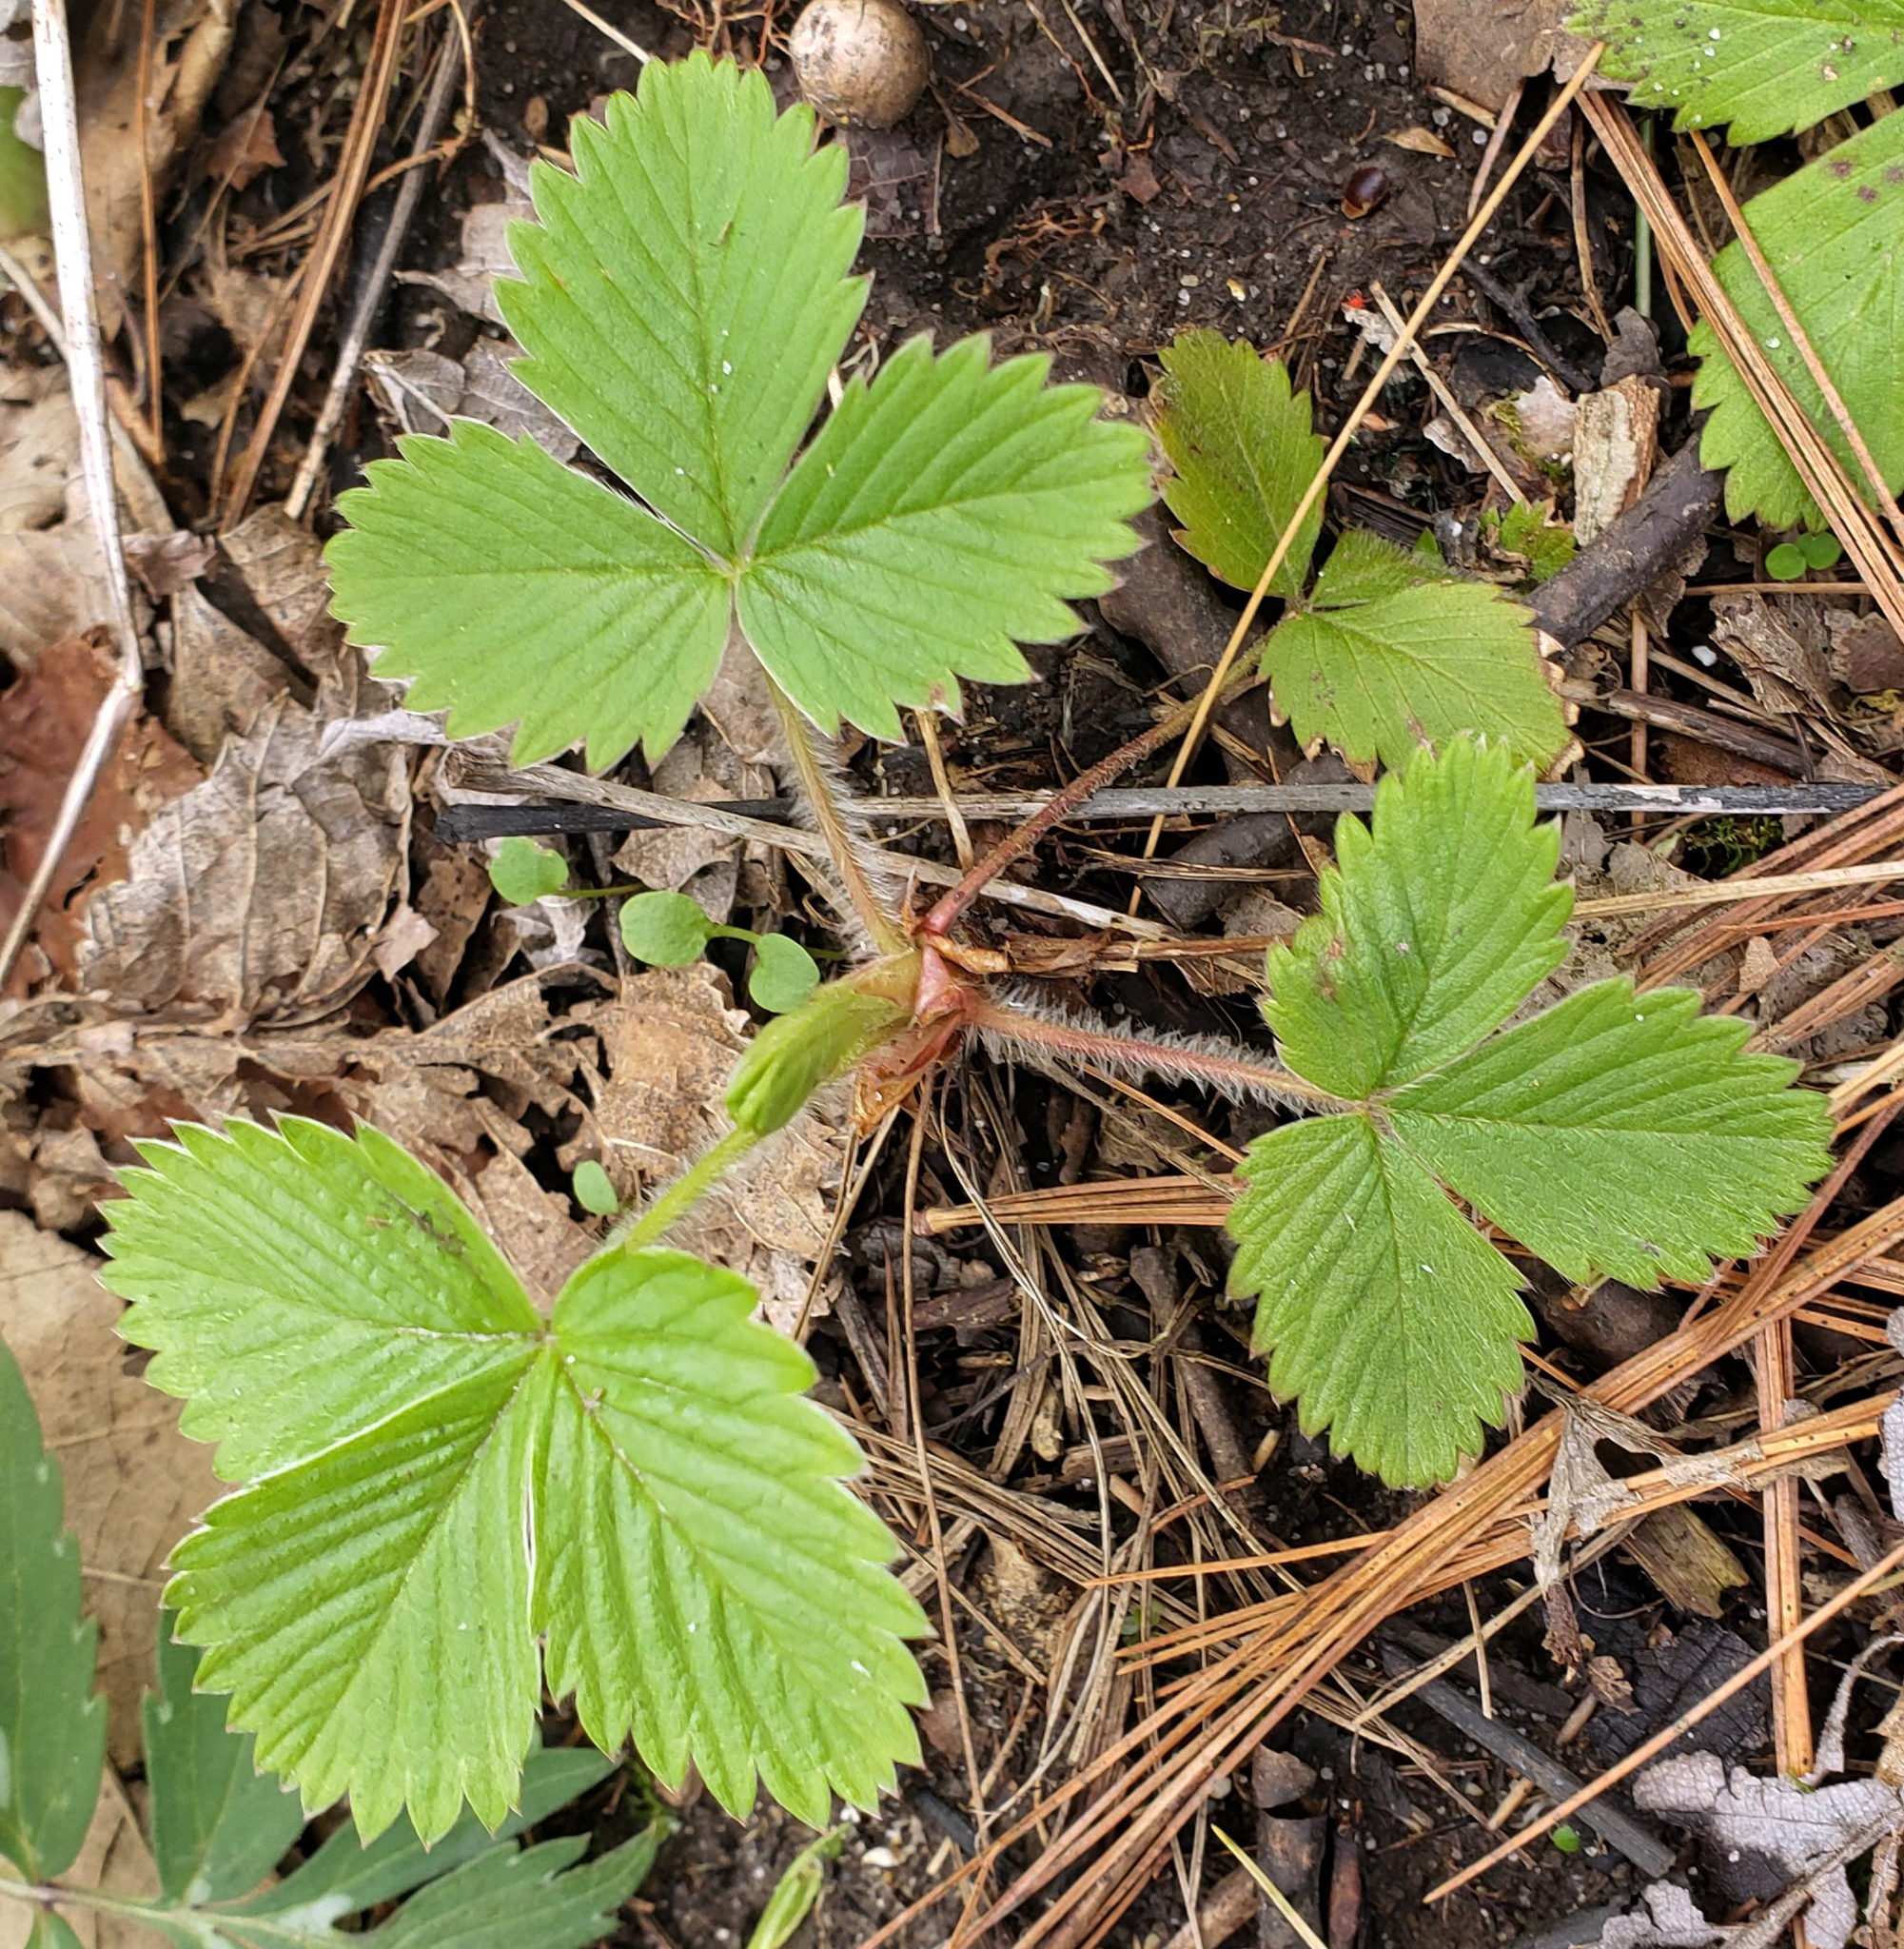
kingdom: Plantae
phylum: Tracheophyta
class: Magnoliopsida
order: Rosales
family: Rosaceae
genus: Fragaria
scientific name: Fragaria virginiana
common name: Thickleaved wild strawberry
